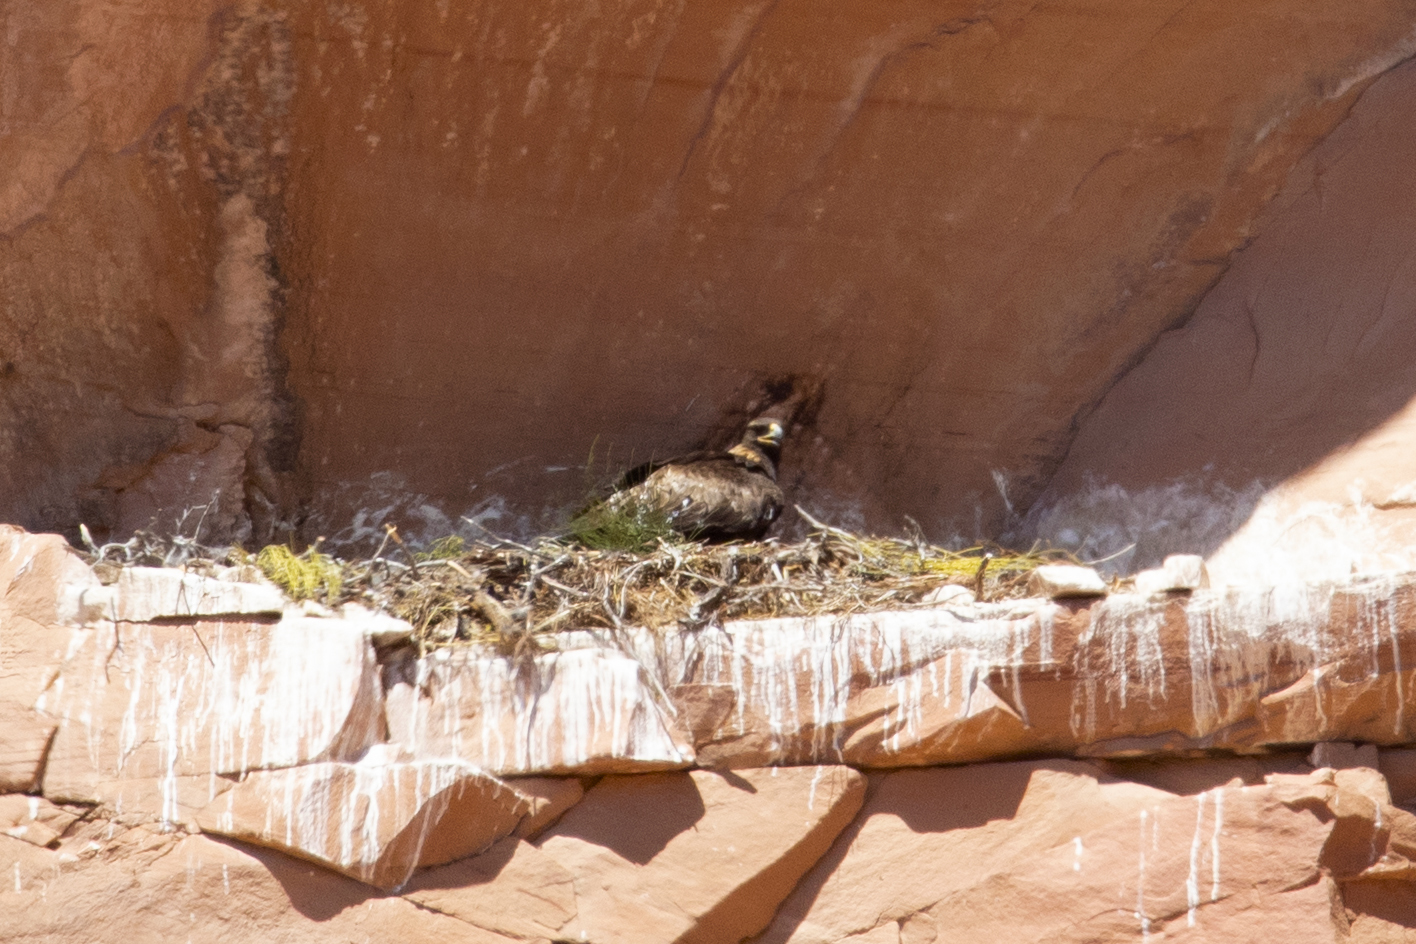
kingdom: Animalia
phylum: Chordata
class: Aves
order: Accipitriformes
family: Accipitridae
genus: Aquila
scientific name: Aquila chrysaetos
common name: Golden eagle
